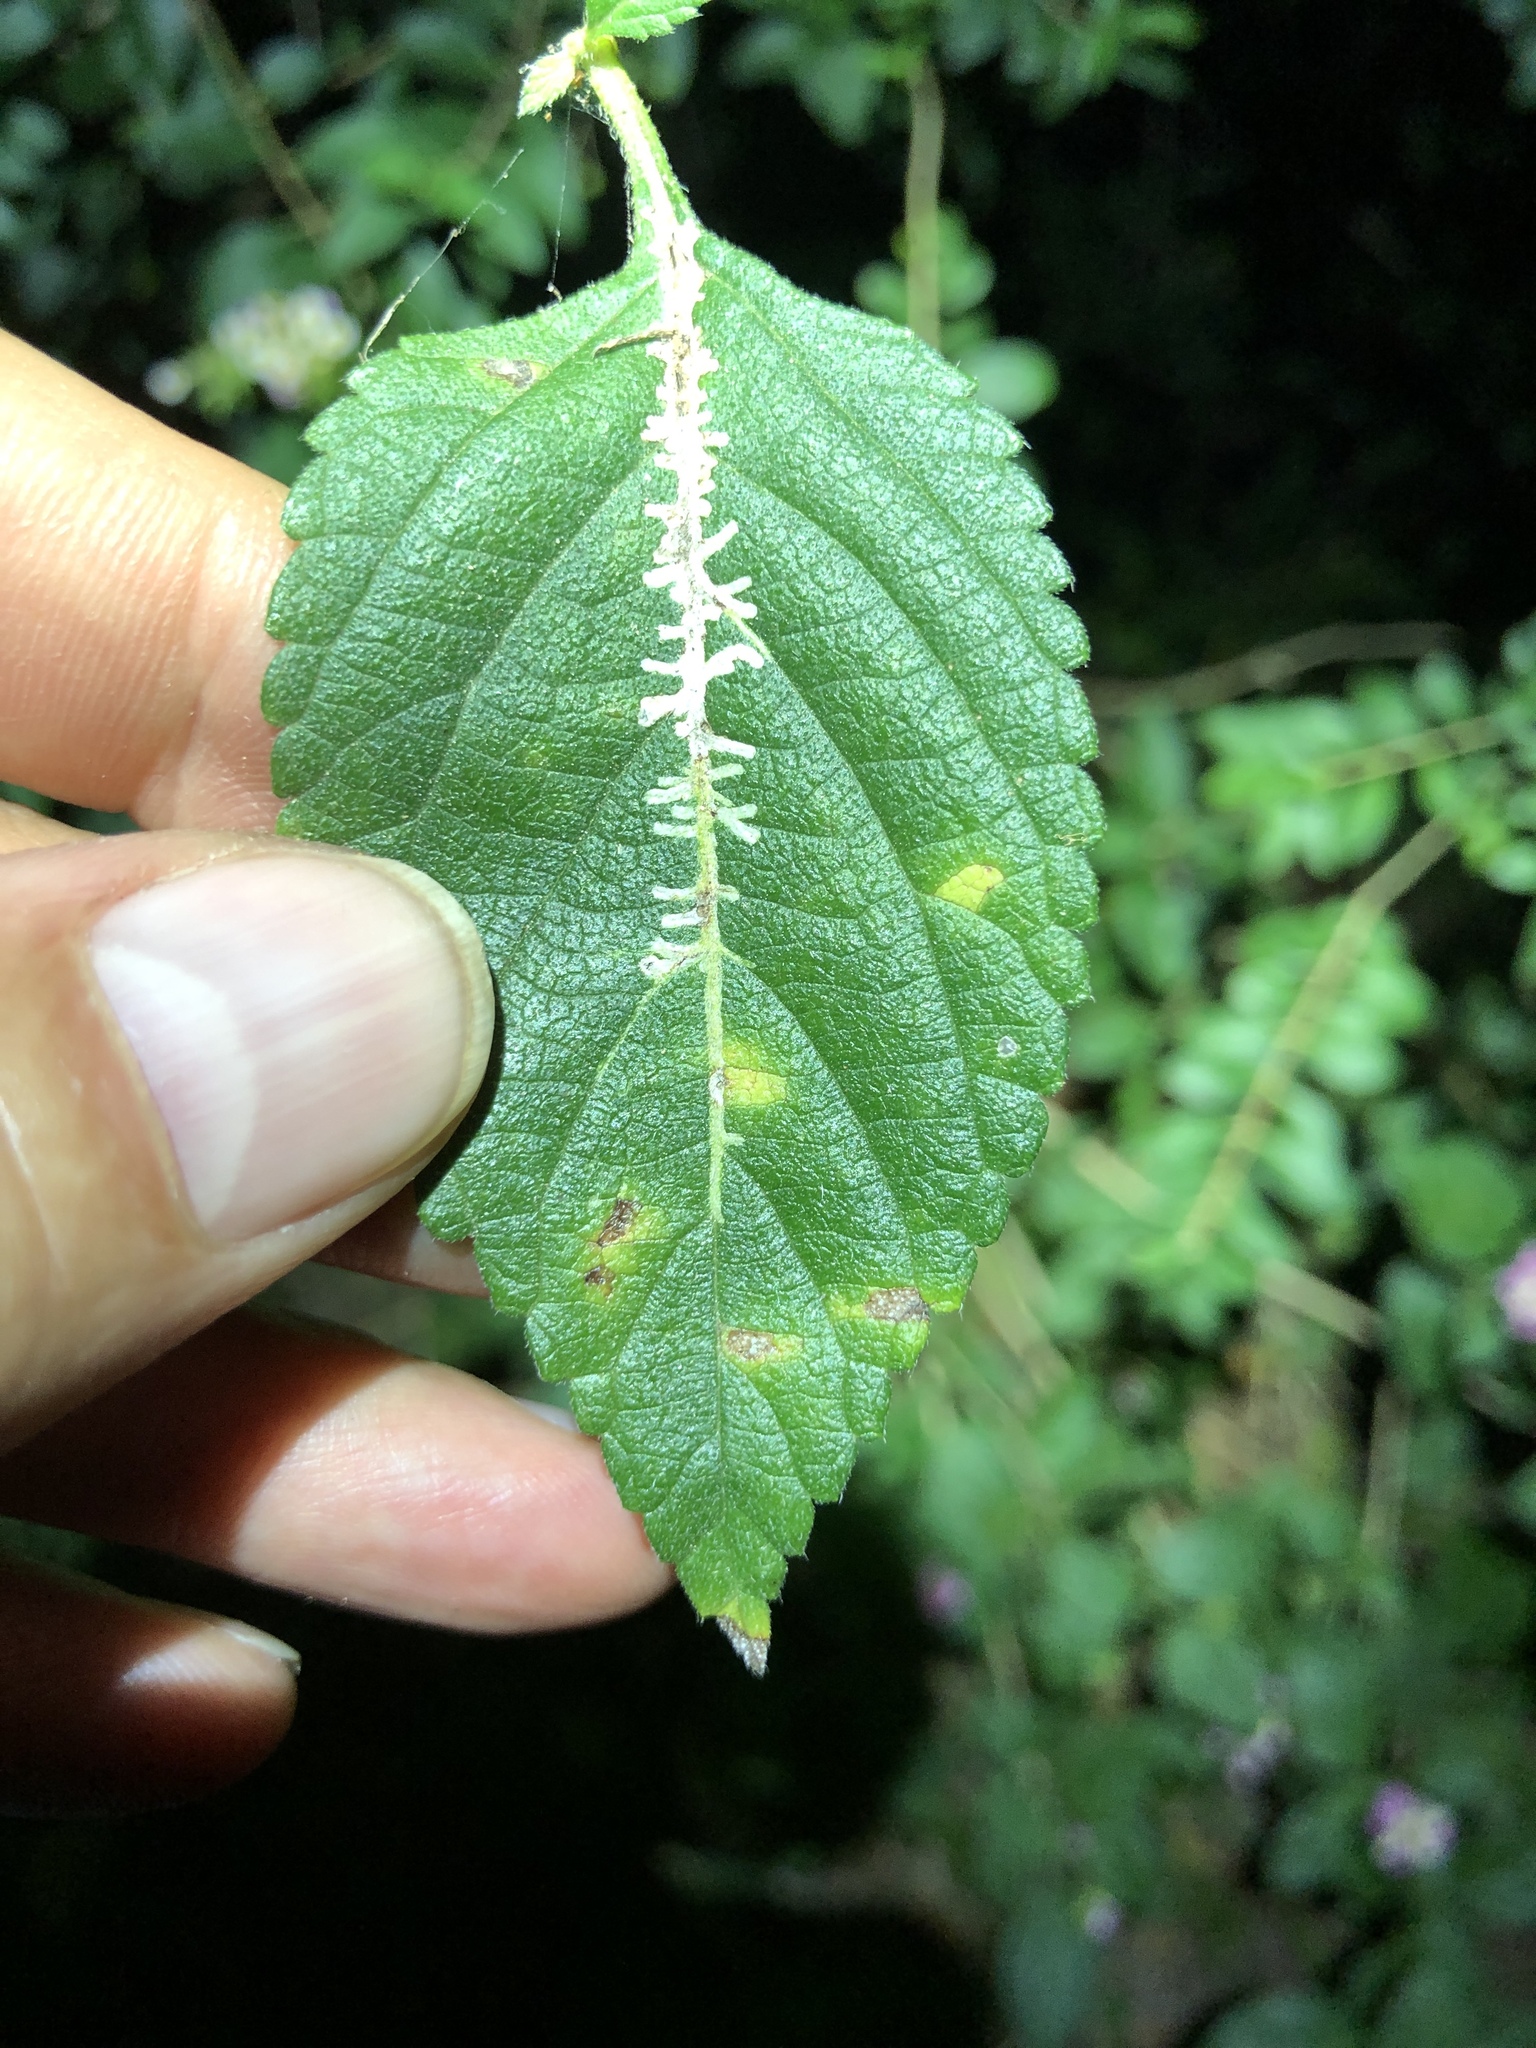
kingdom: Animalia
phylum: Arthropoda
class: Insecta
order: Diptera
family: Agromyzidae
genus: Ophiomyia
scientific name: Ophiomyia camarae
